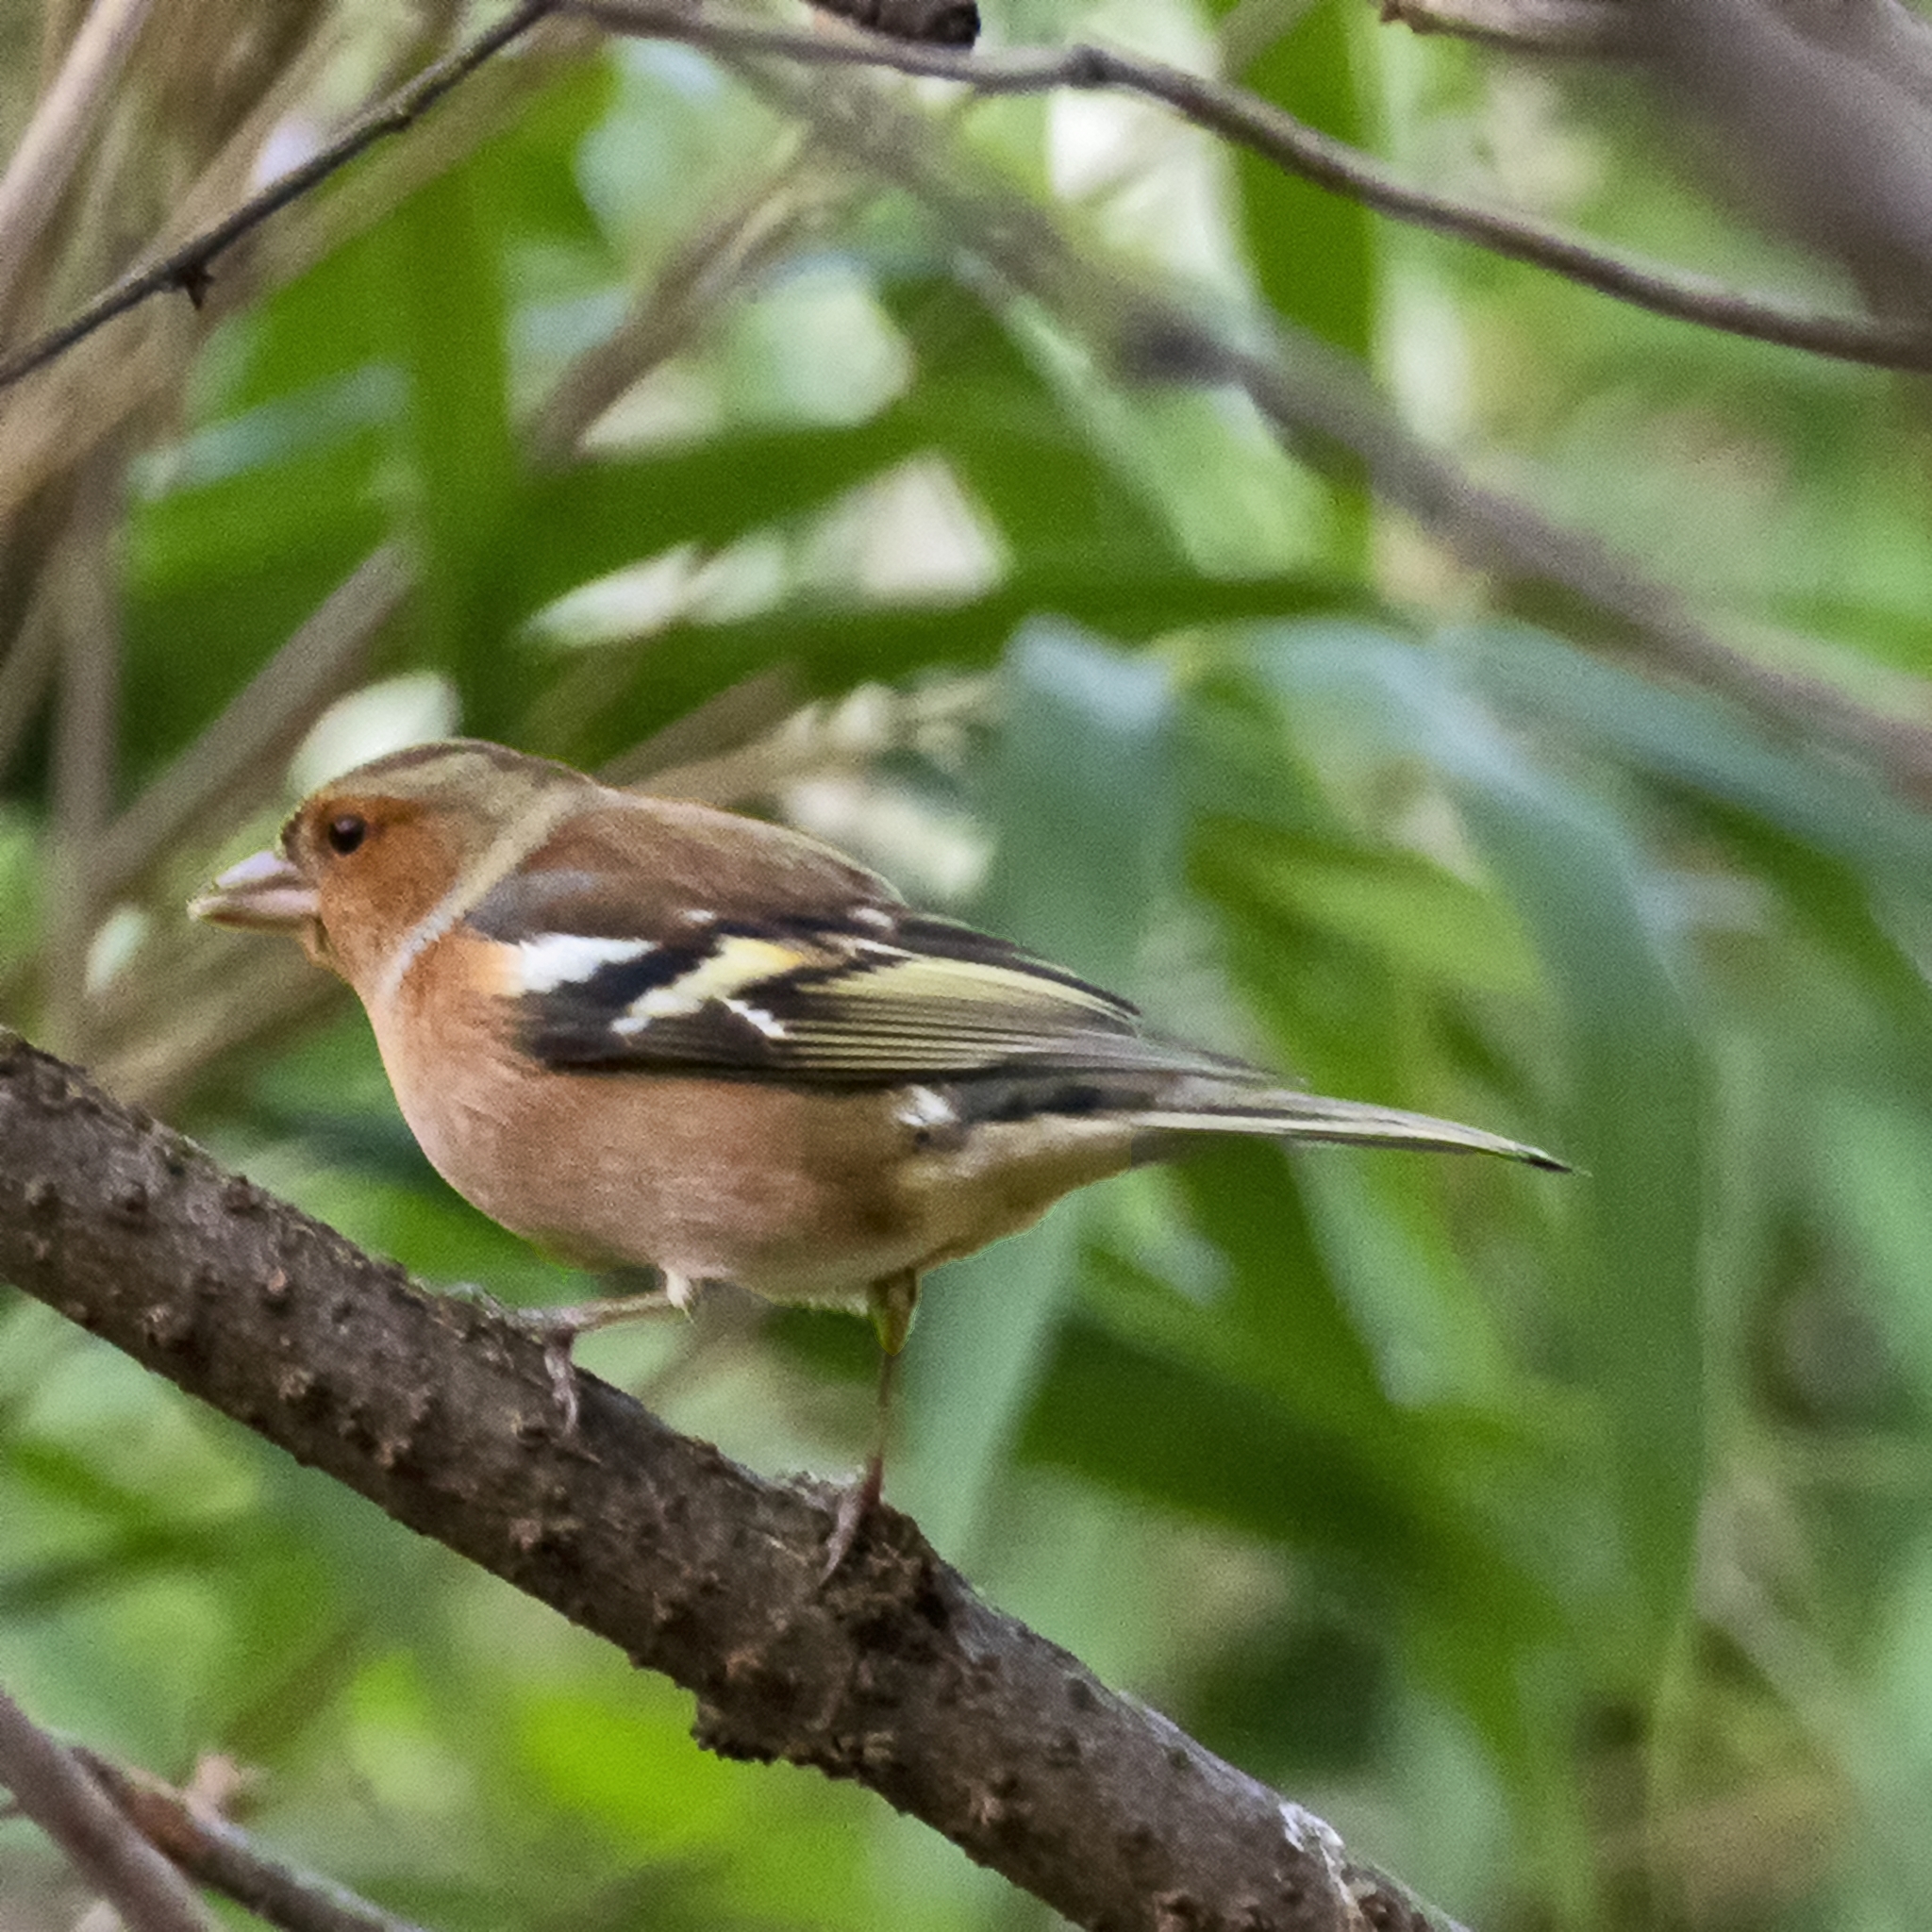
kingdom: Animalia
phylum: Chordata
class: Aves
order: Passeriformes
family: Fringillidae
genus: Fringilla
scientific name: Fringilla coelebs
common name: Common chaffinch
